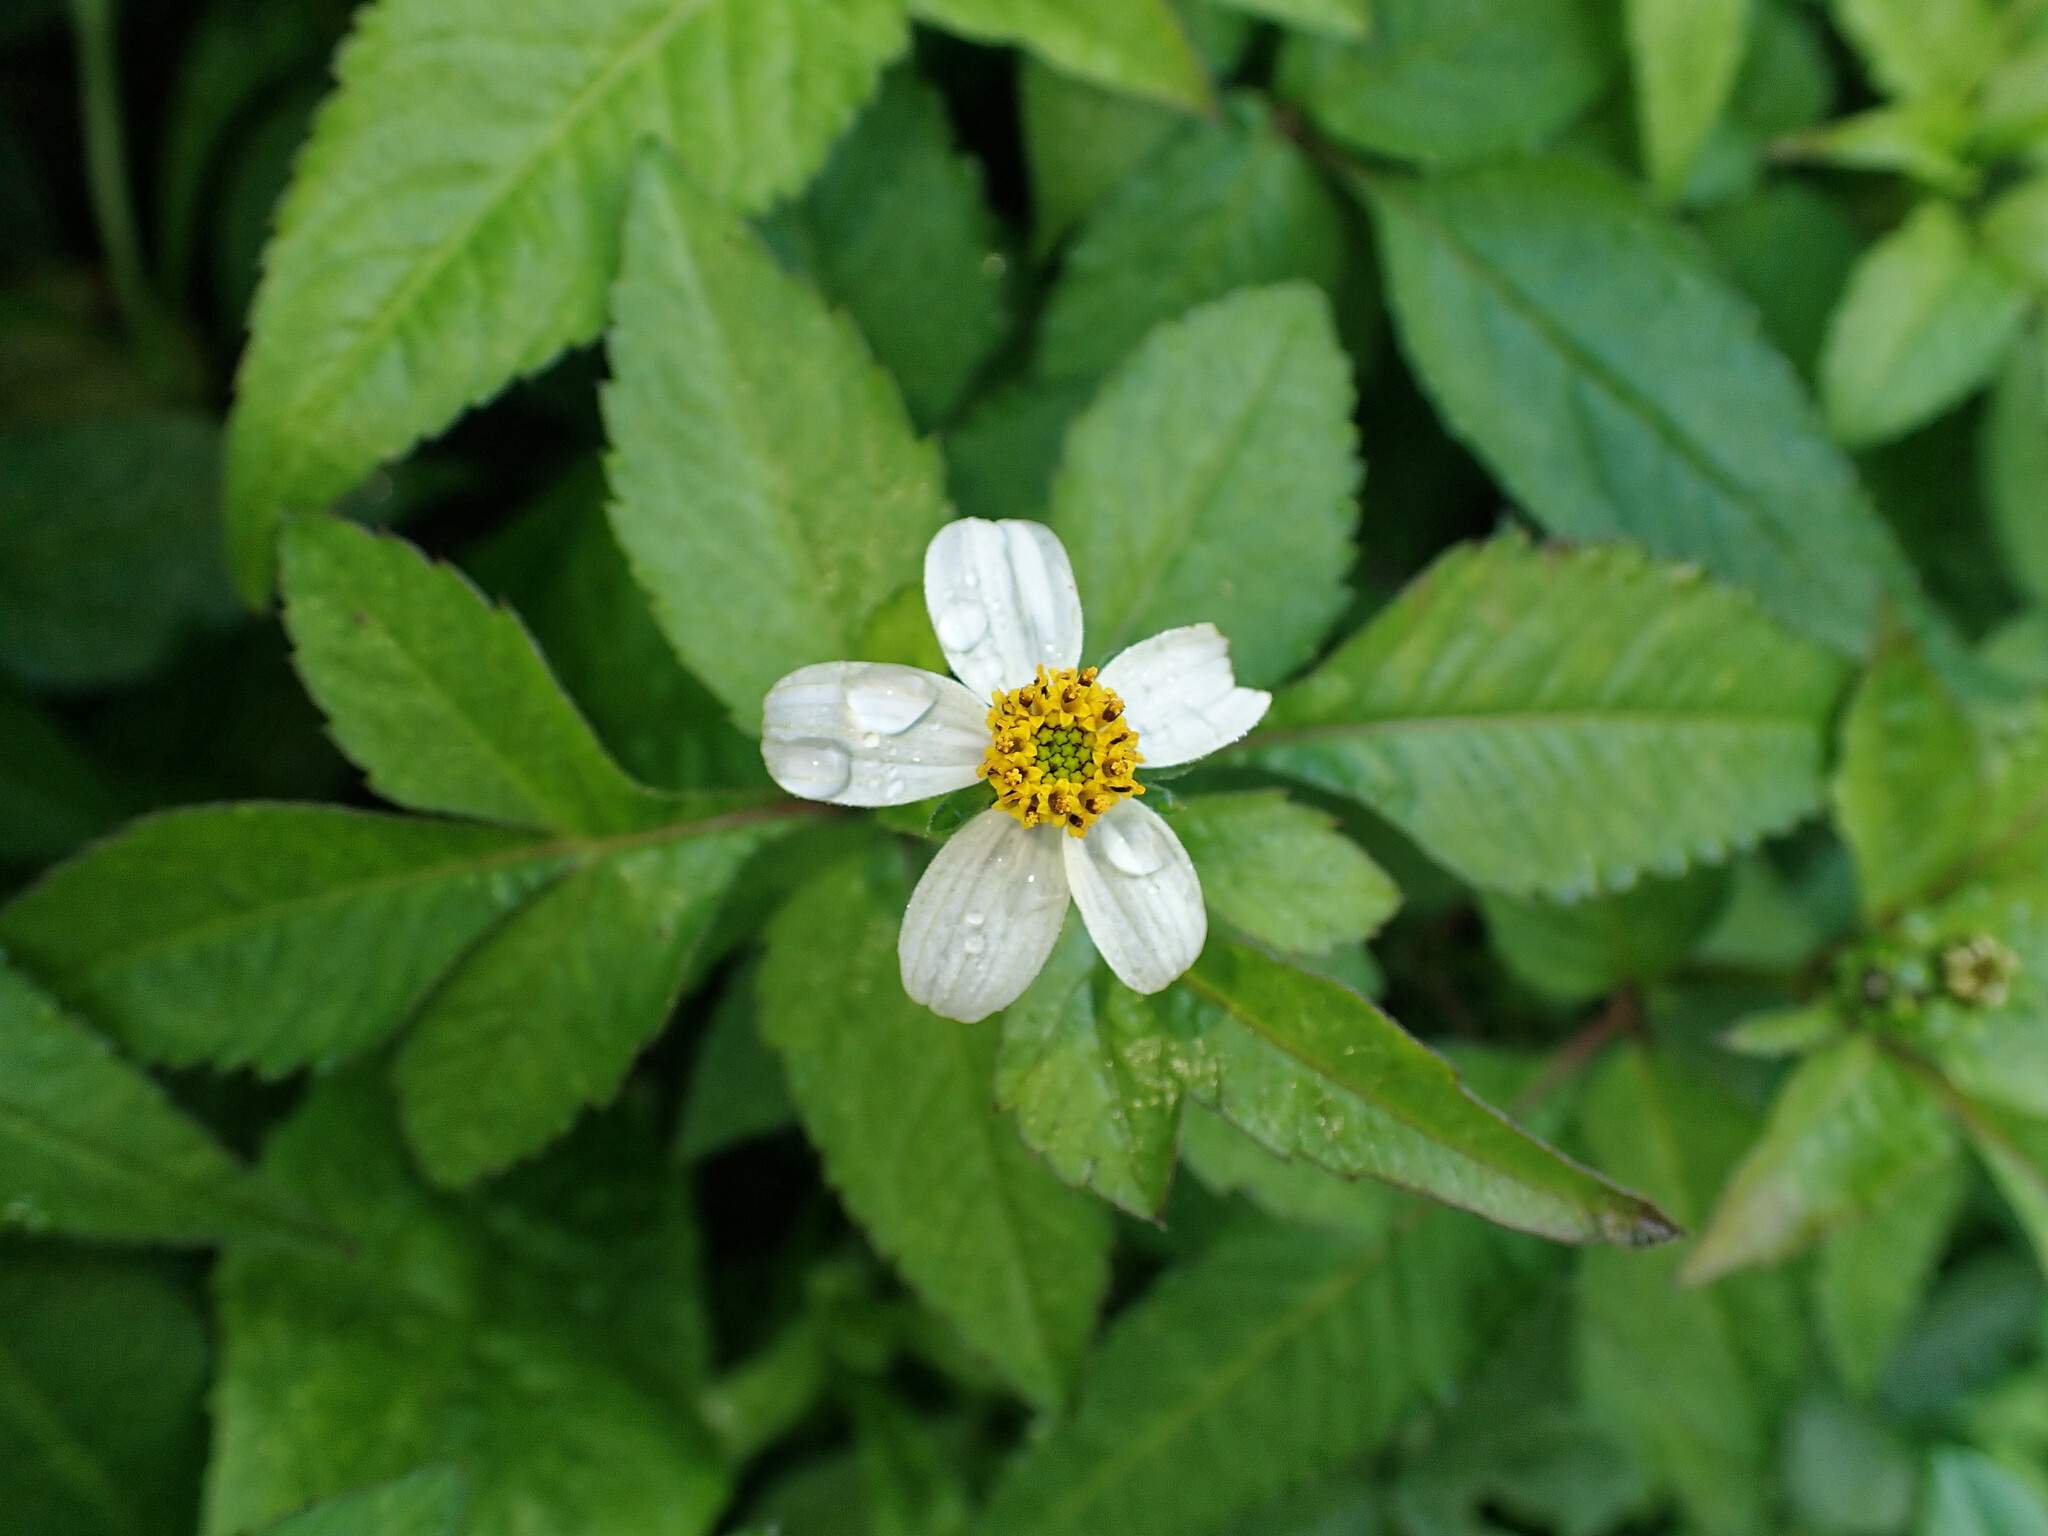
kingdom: Plantae
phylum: Tracheophyta
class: Magnoliopsida
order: Asterales
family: Asteraceae
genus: Bidens
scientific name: Bidens pilosa
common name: Black-jack
